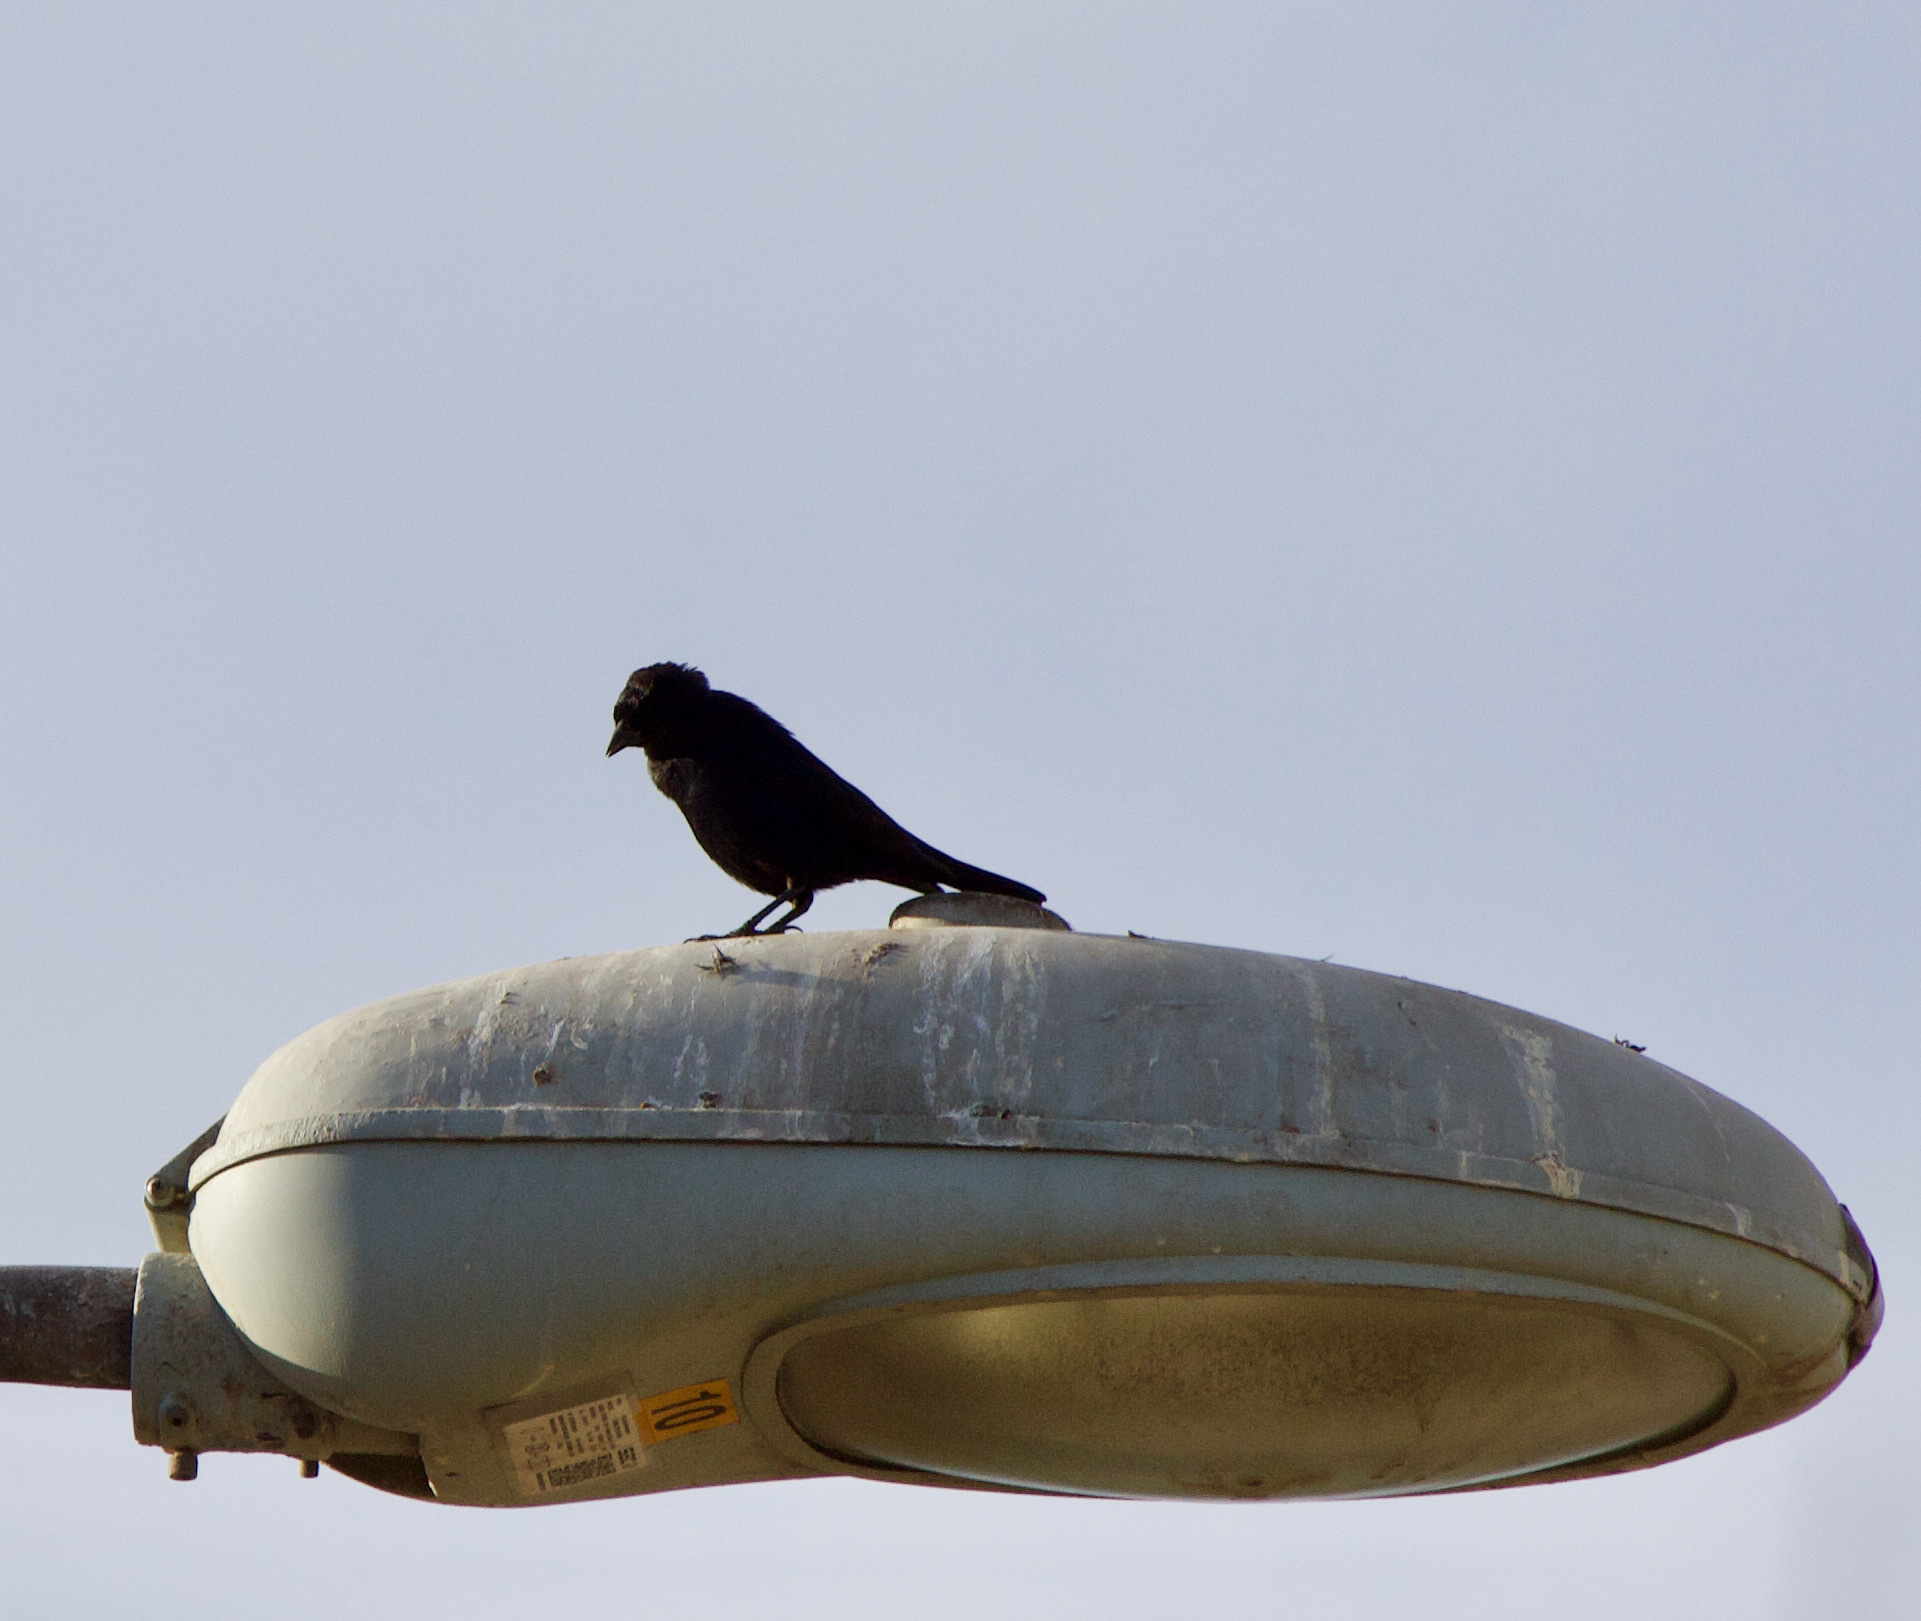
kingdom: Animalia
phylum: Chordata
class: Aves
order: Passeriformes
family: Icteridae
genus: Curaeus
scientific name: Curaeus curaeus
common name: Austral blackbird
